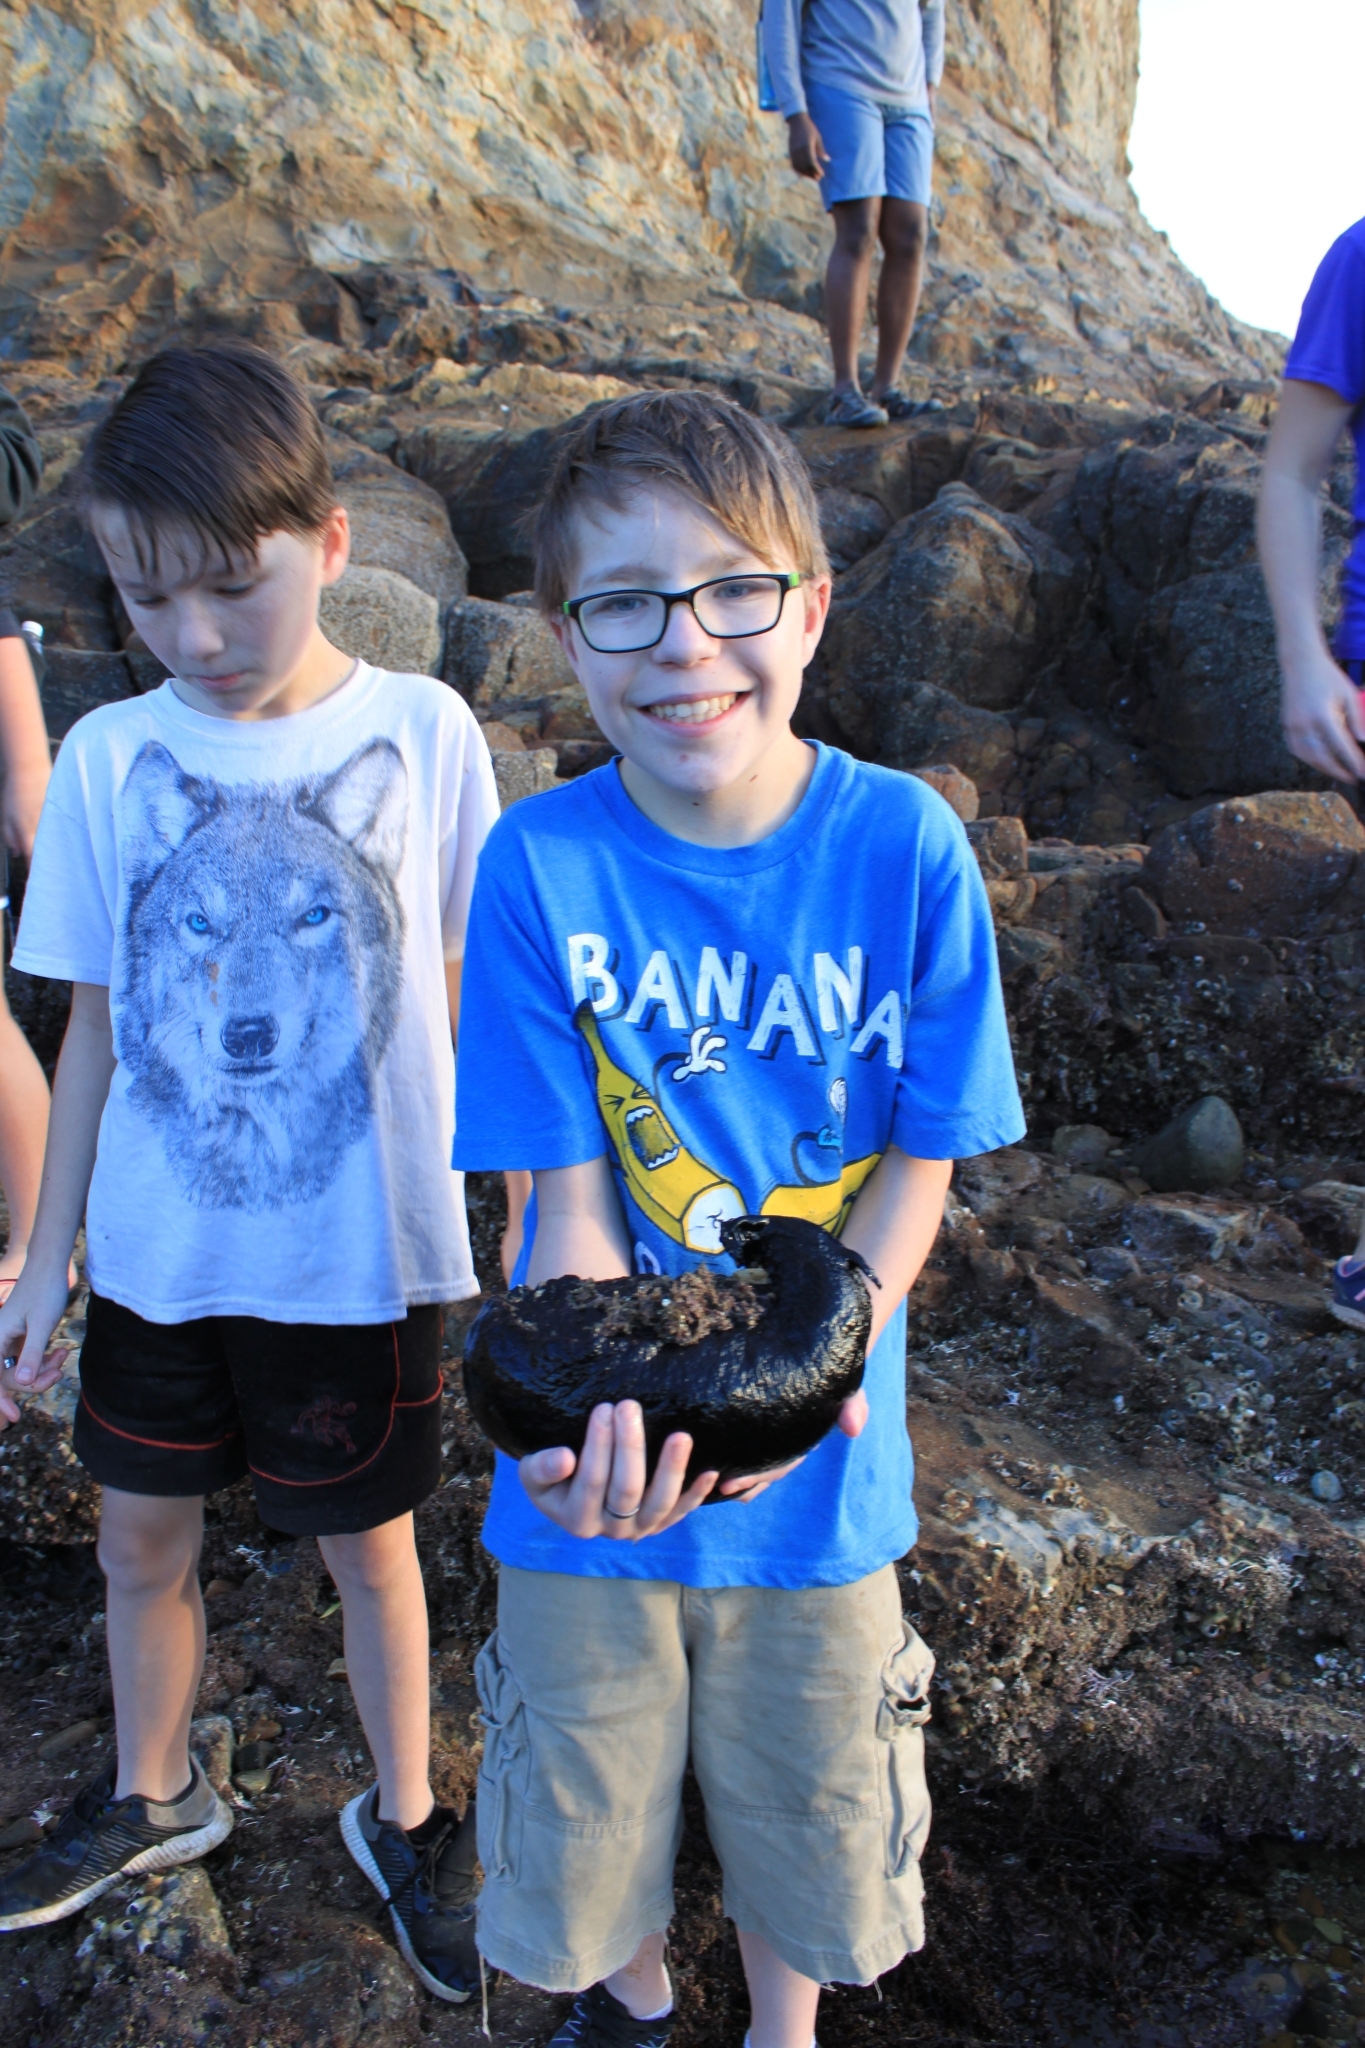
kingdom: Animalia
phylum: Mollusca
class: Gastropoda
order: Aplysiida
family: Aplysiidae
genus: Aplysia
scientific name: Aplysia vaccaria
